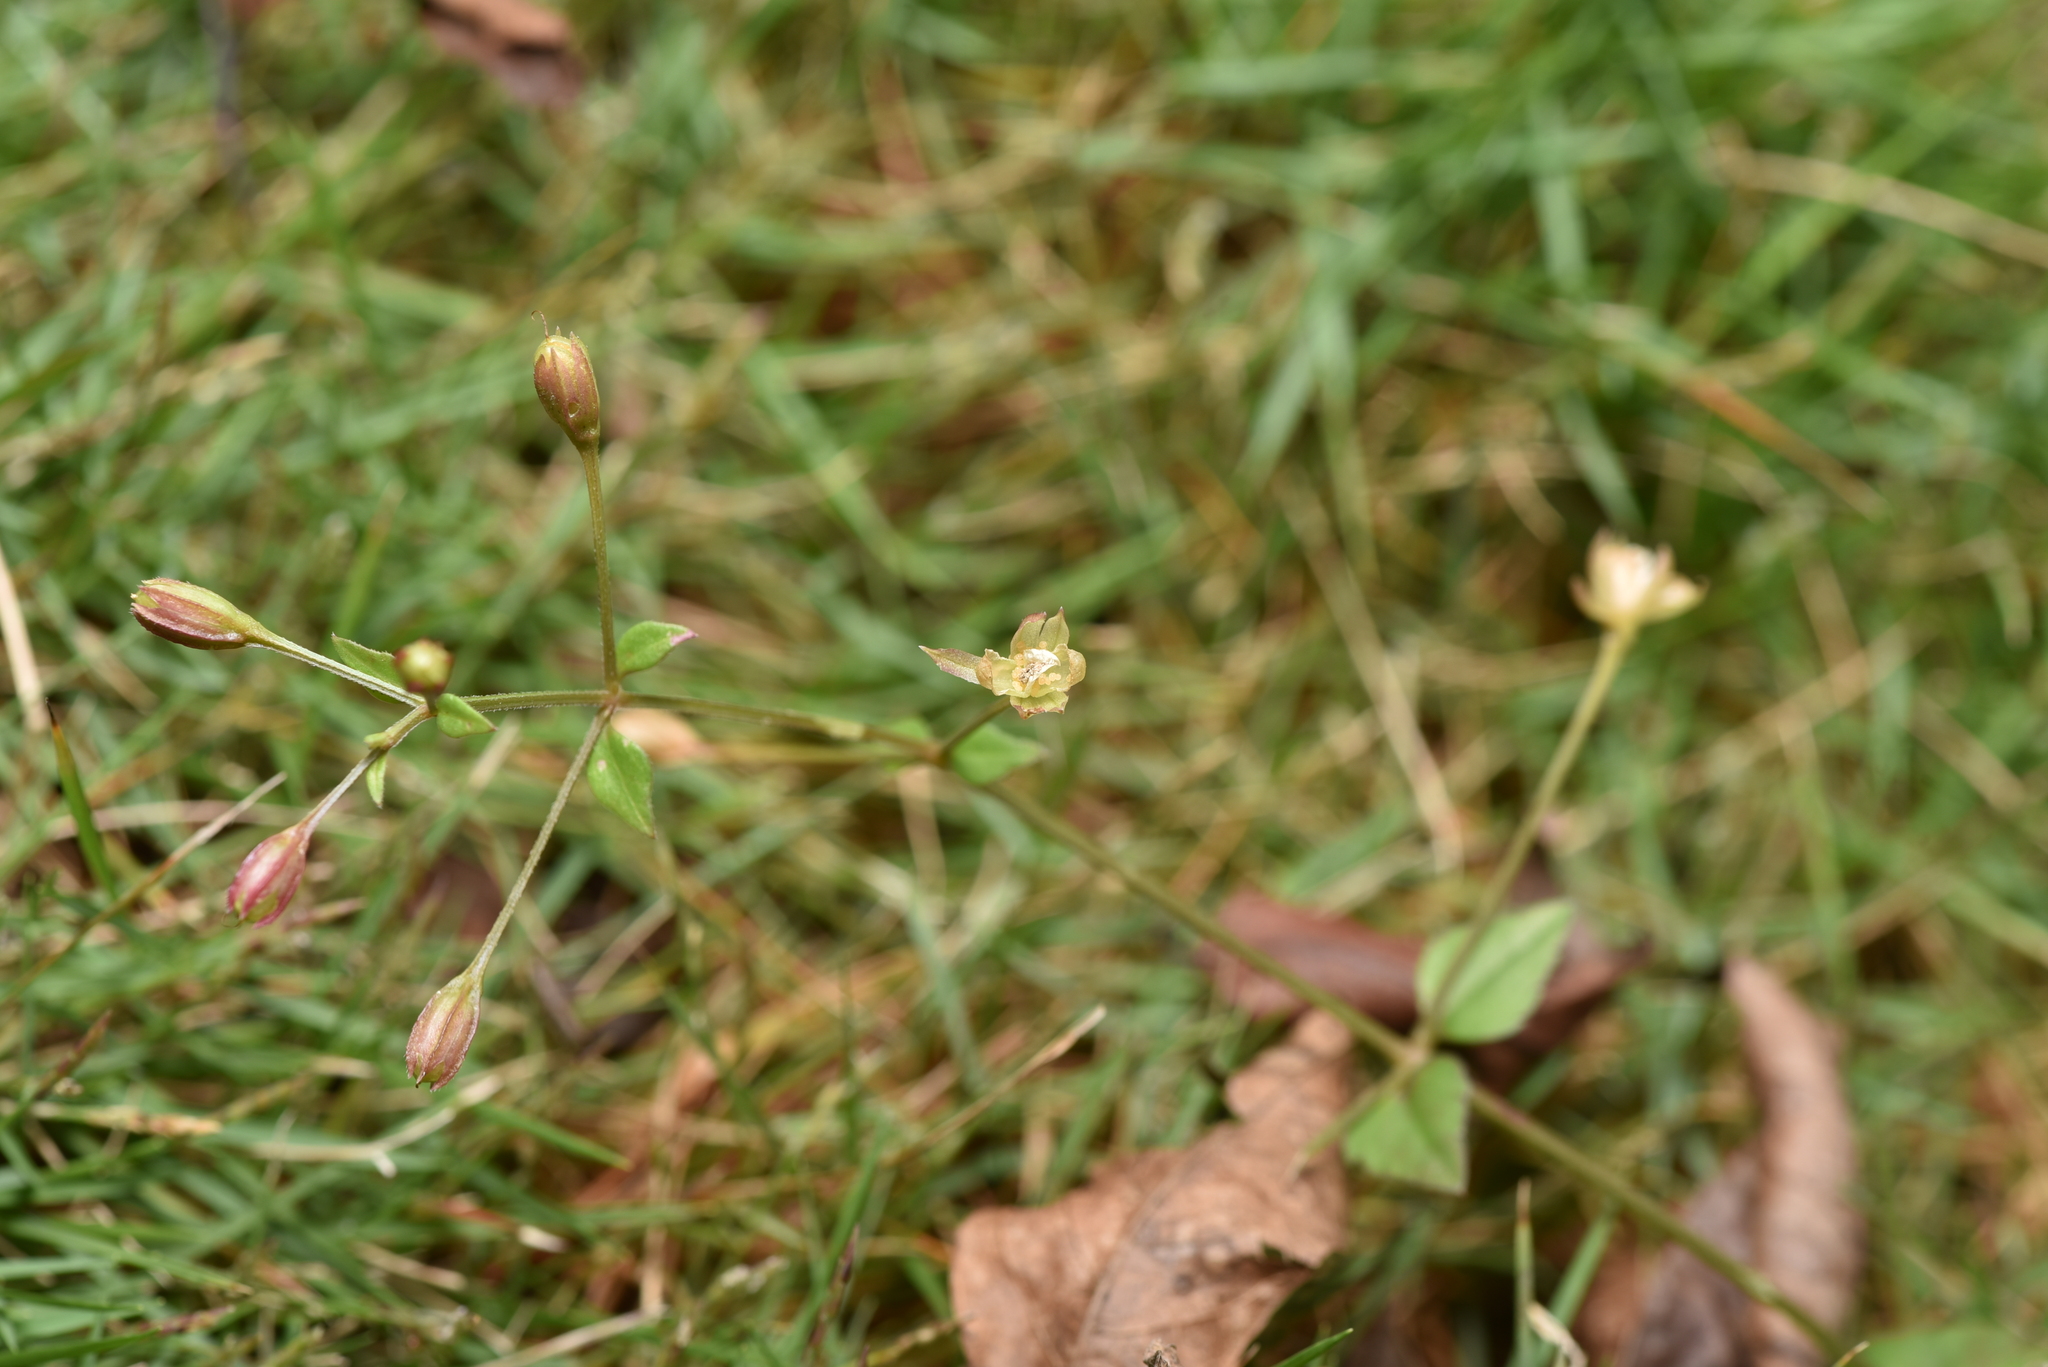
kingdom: Plantae
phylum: Tracheophyta
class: Magnoliopsida
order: Lamiales
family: Linderniaceae
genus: Torenia
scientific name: Torenia crustacea
